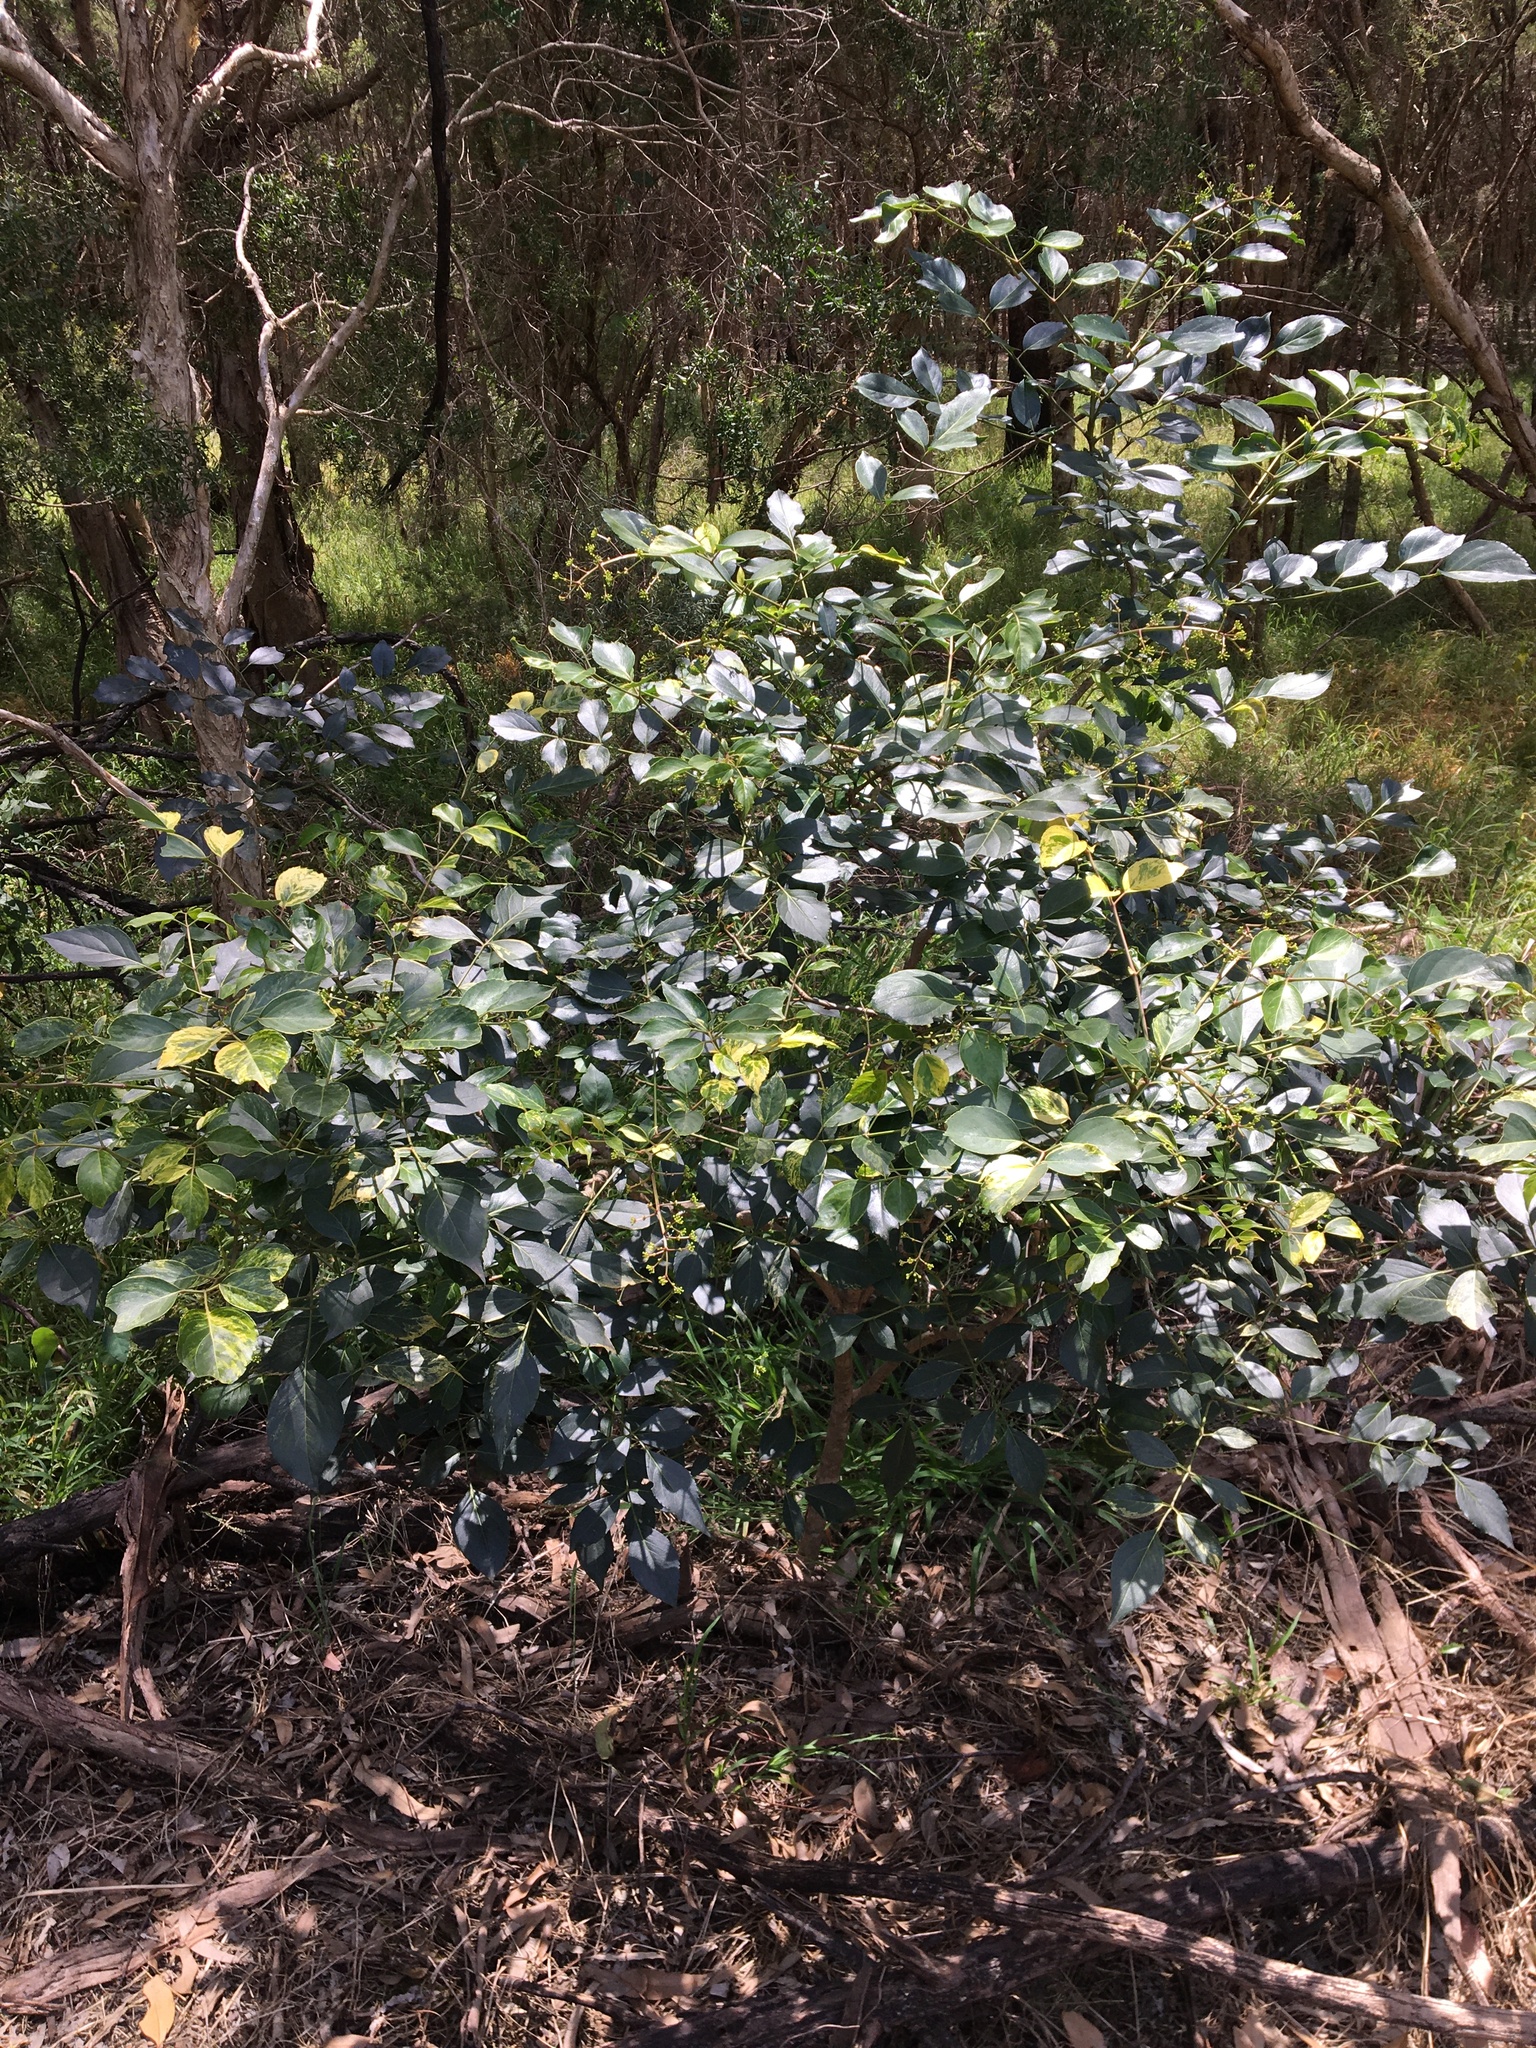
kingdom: Plantae
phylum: Tracheophyta
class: Magnoliopsida
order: Apiales
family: Araliaceae
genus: Polyscias
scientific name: Polyscias sambucifolia
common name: Elderberry-ash
